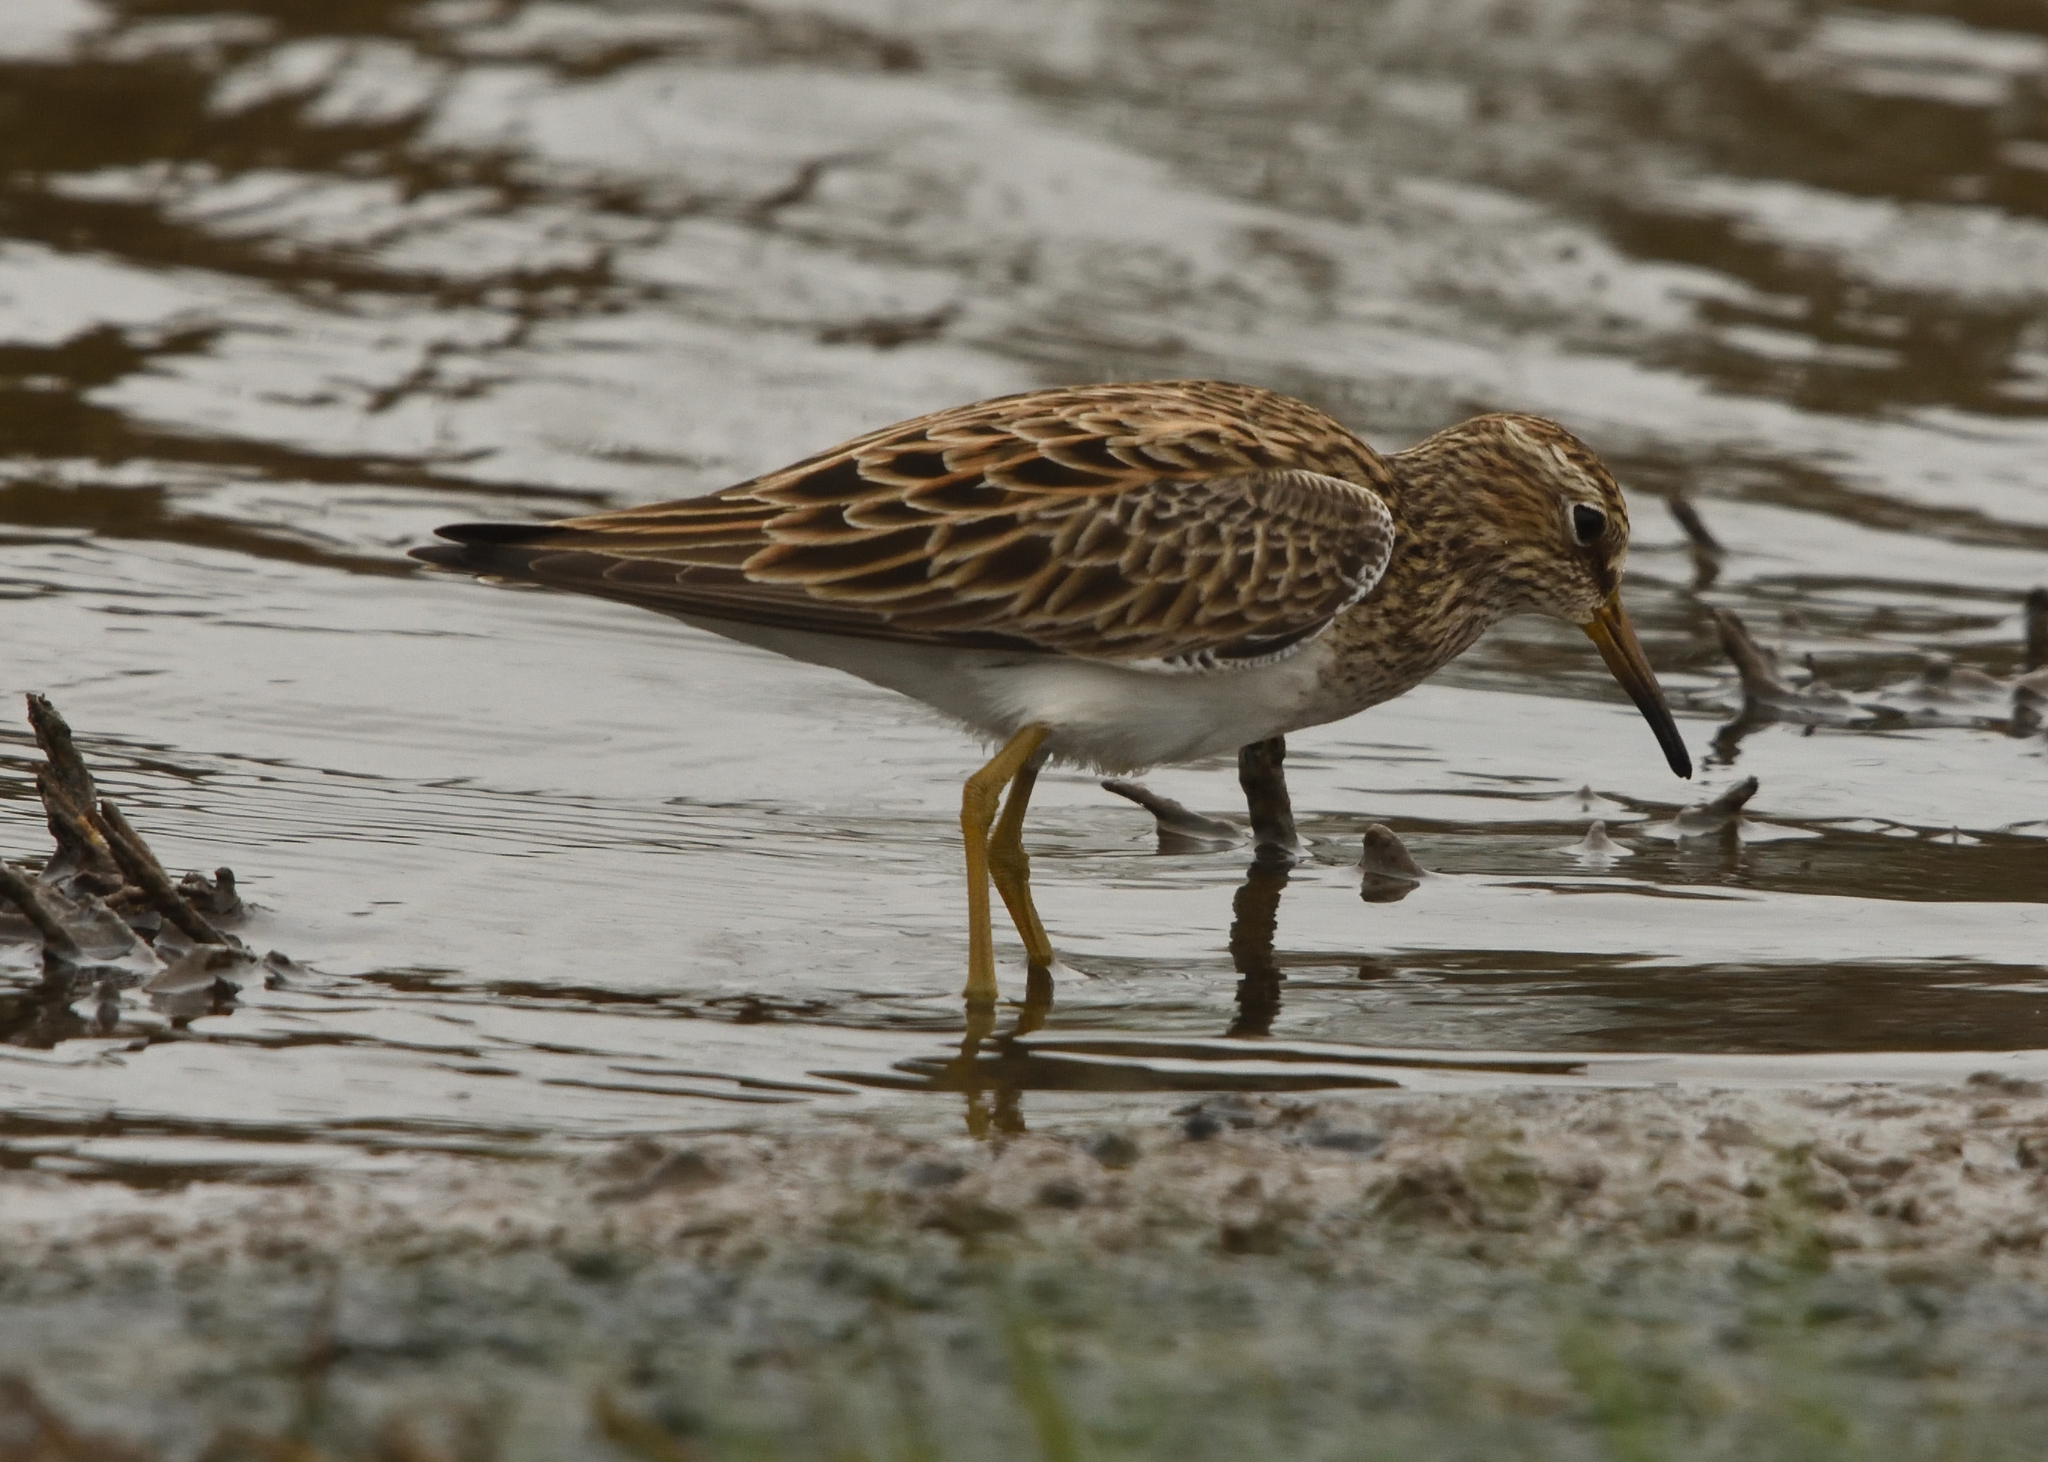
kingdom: Animalia
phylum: Chordata
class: Aves
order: Charadriiformes
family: Scolopacidae
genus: Calidris
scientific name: Calidris melanotos
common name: Pectoral sandpiper
